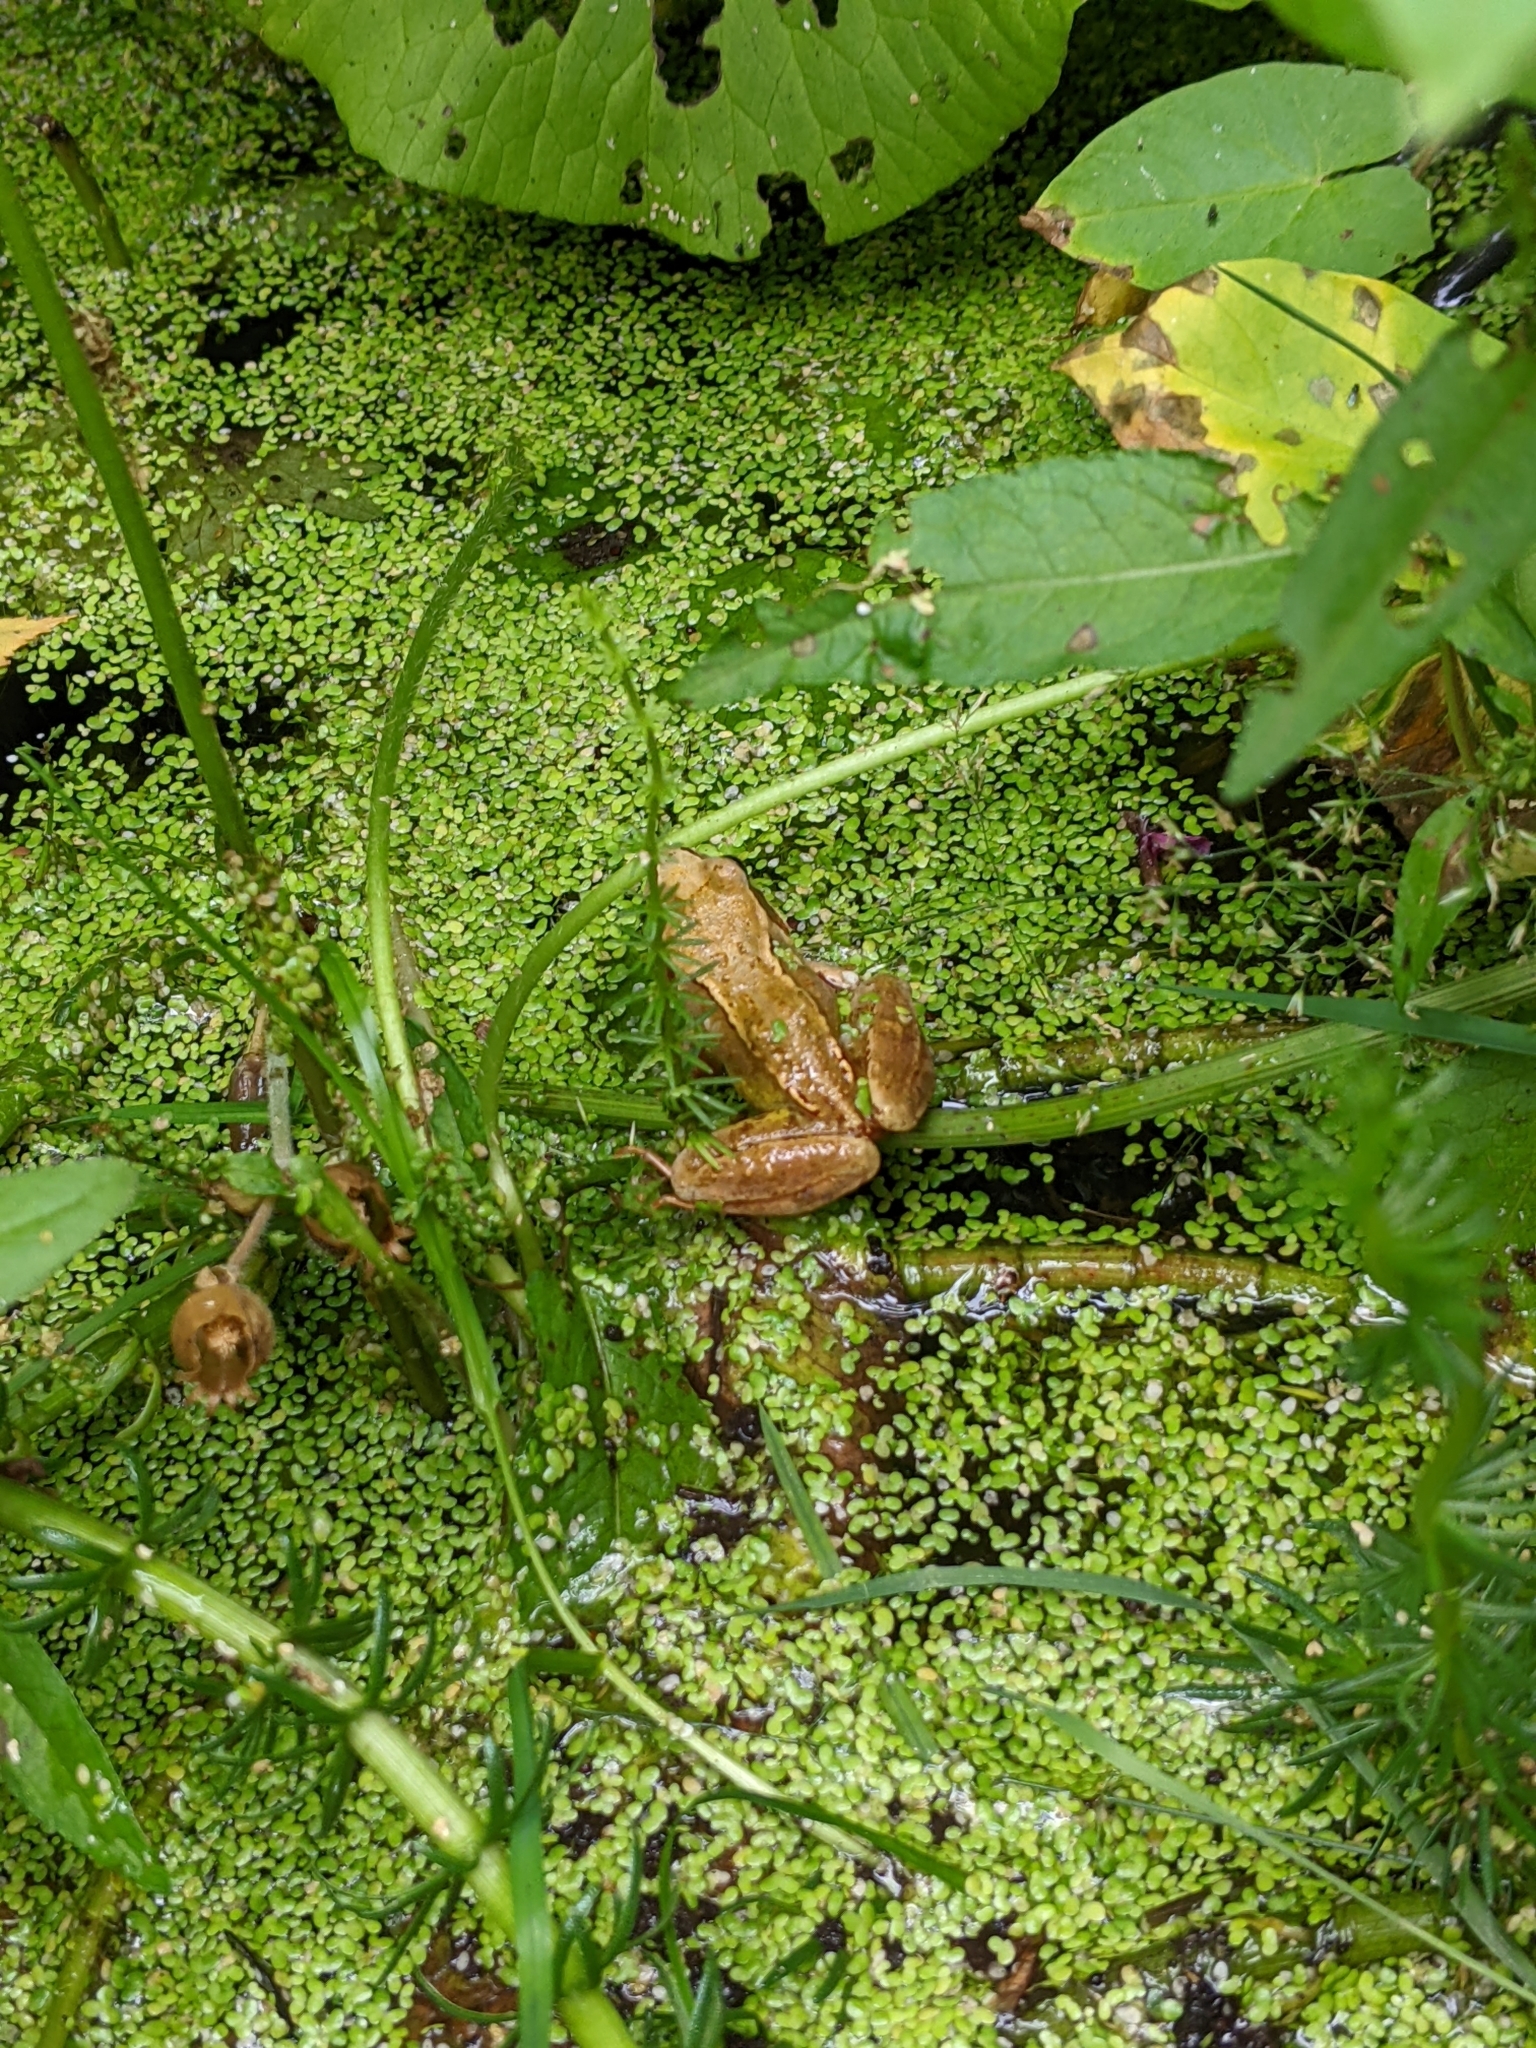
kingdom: Animalia
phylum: Chordata
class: Amphibia
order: Anura
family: Ranidae
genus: Rana
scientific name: Rana temporaria
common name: Common frog
